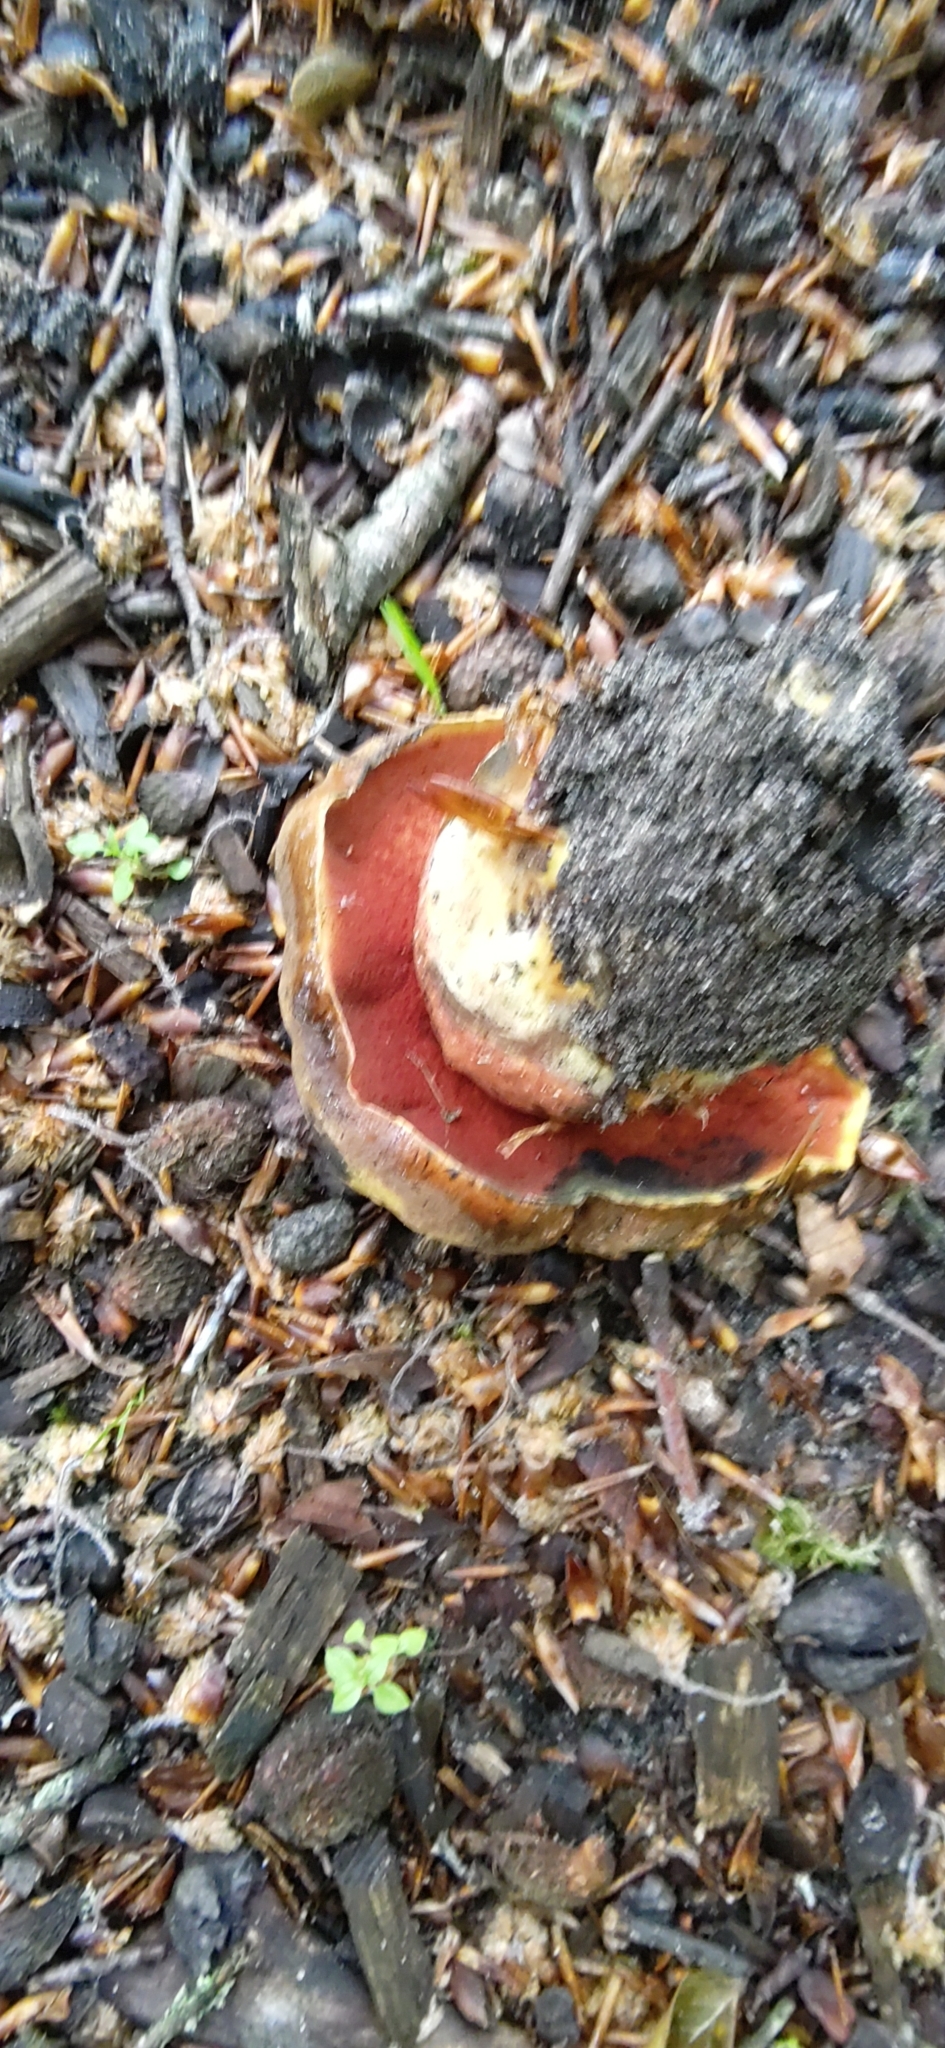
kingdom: Fungi
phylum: Basidiomycota
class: Agaricomycetes
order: Boletales
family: Boletaceae
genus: Neoboletus
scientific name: Neoboletus luridiformis
